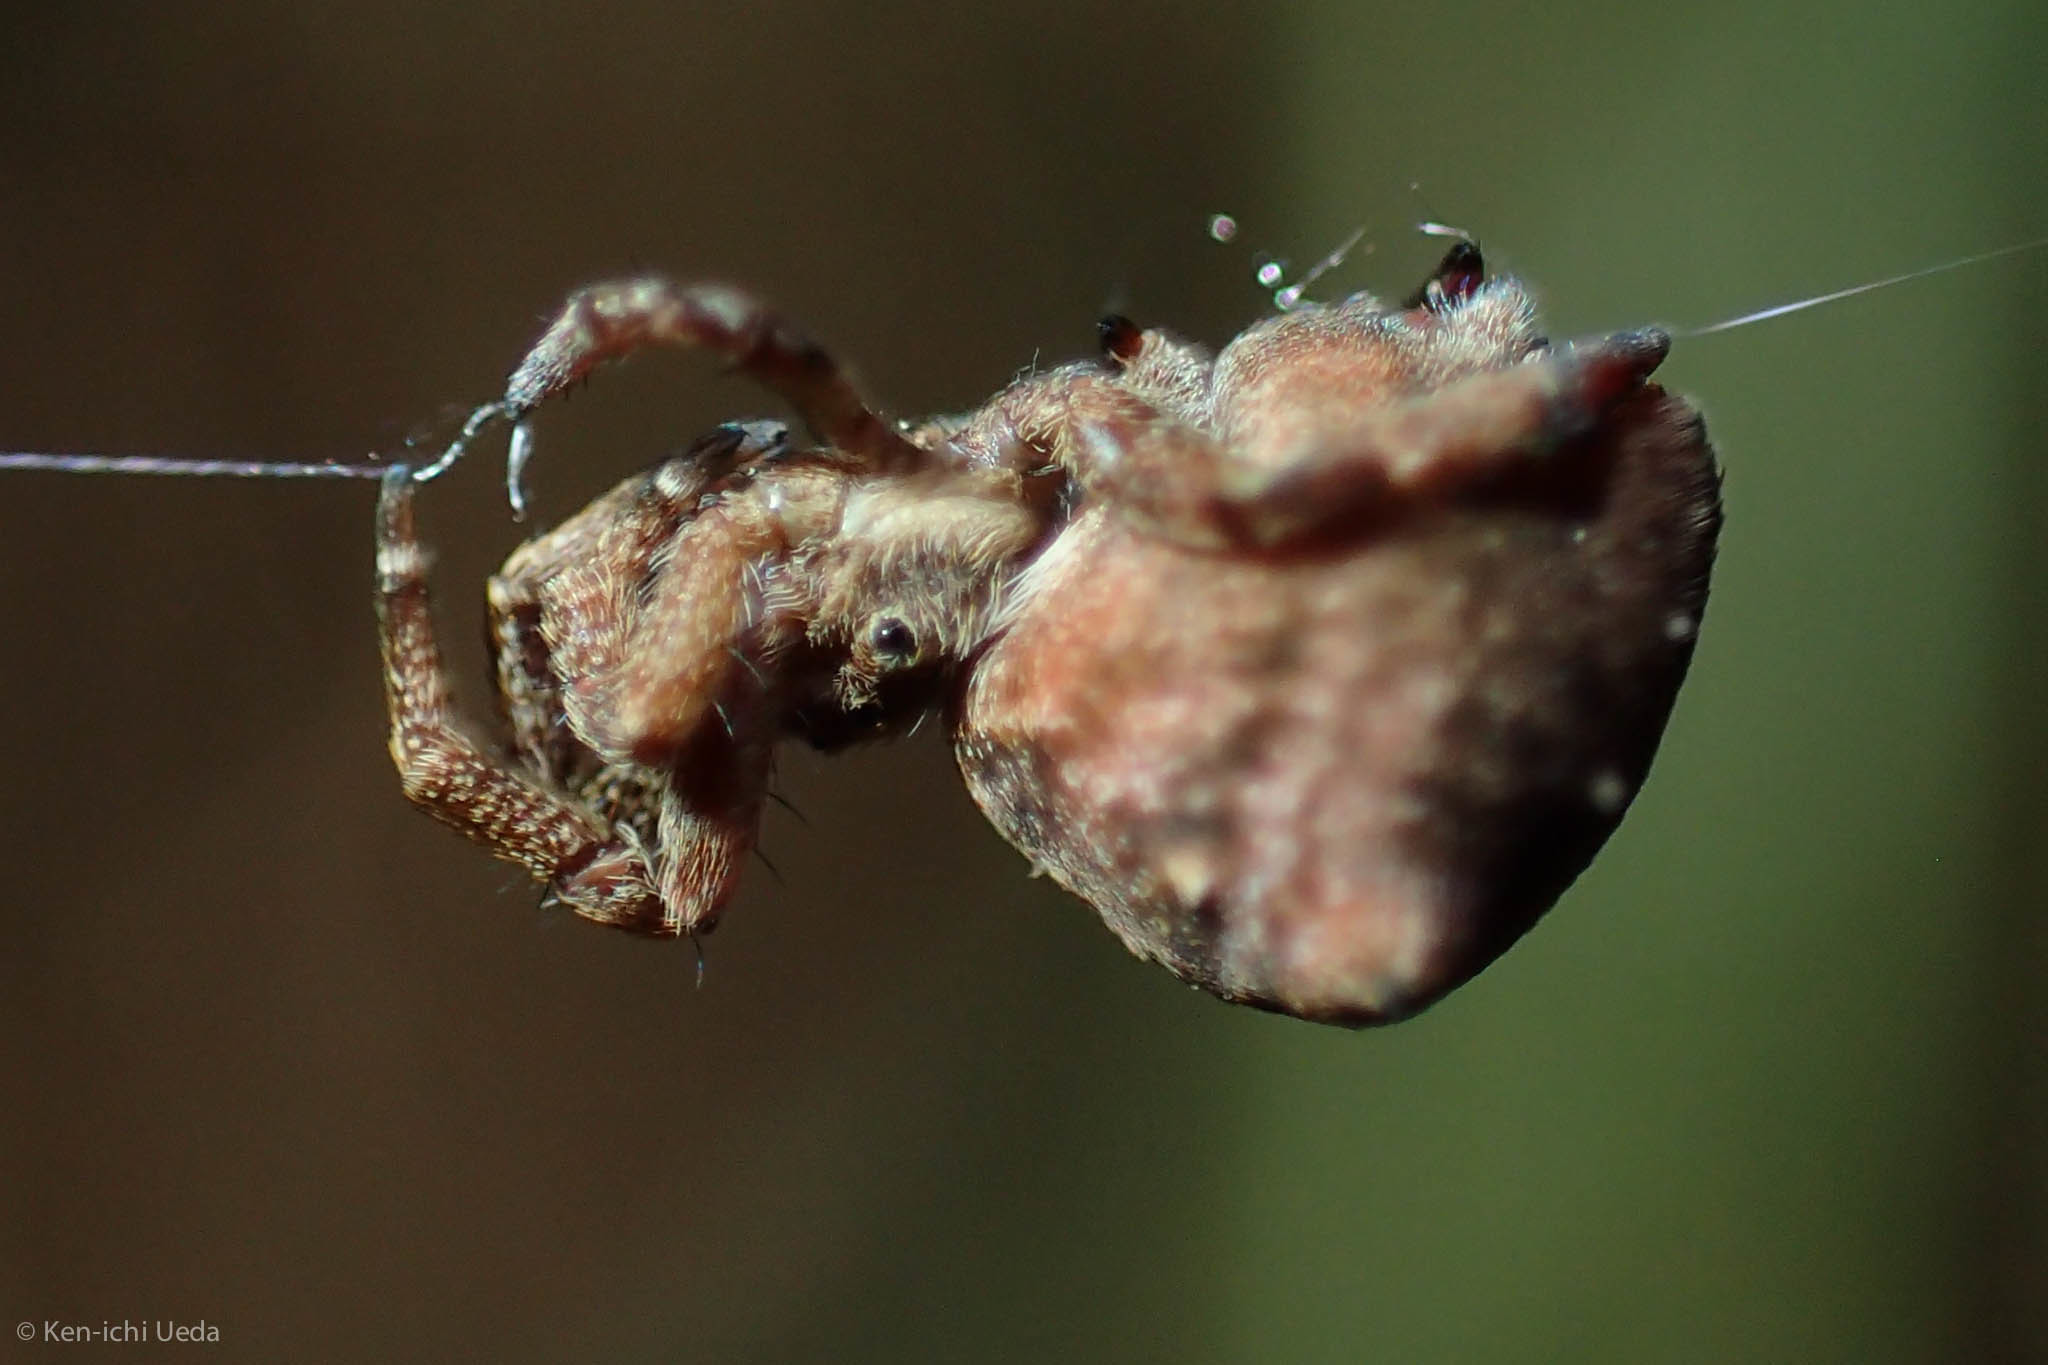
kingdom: Animalia
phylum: Arthropoda
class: Arachnida
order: Araneae
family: Uloboridae
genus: Hyptiotes
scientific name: Hyptiotes gertschi
